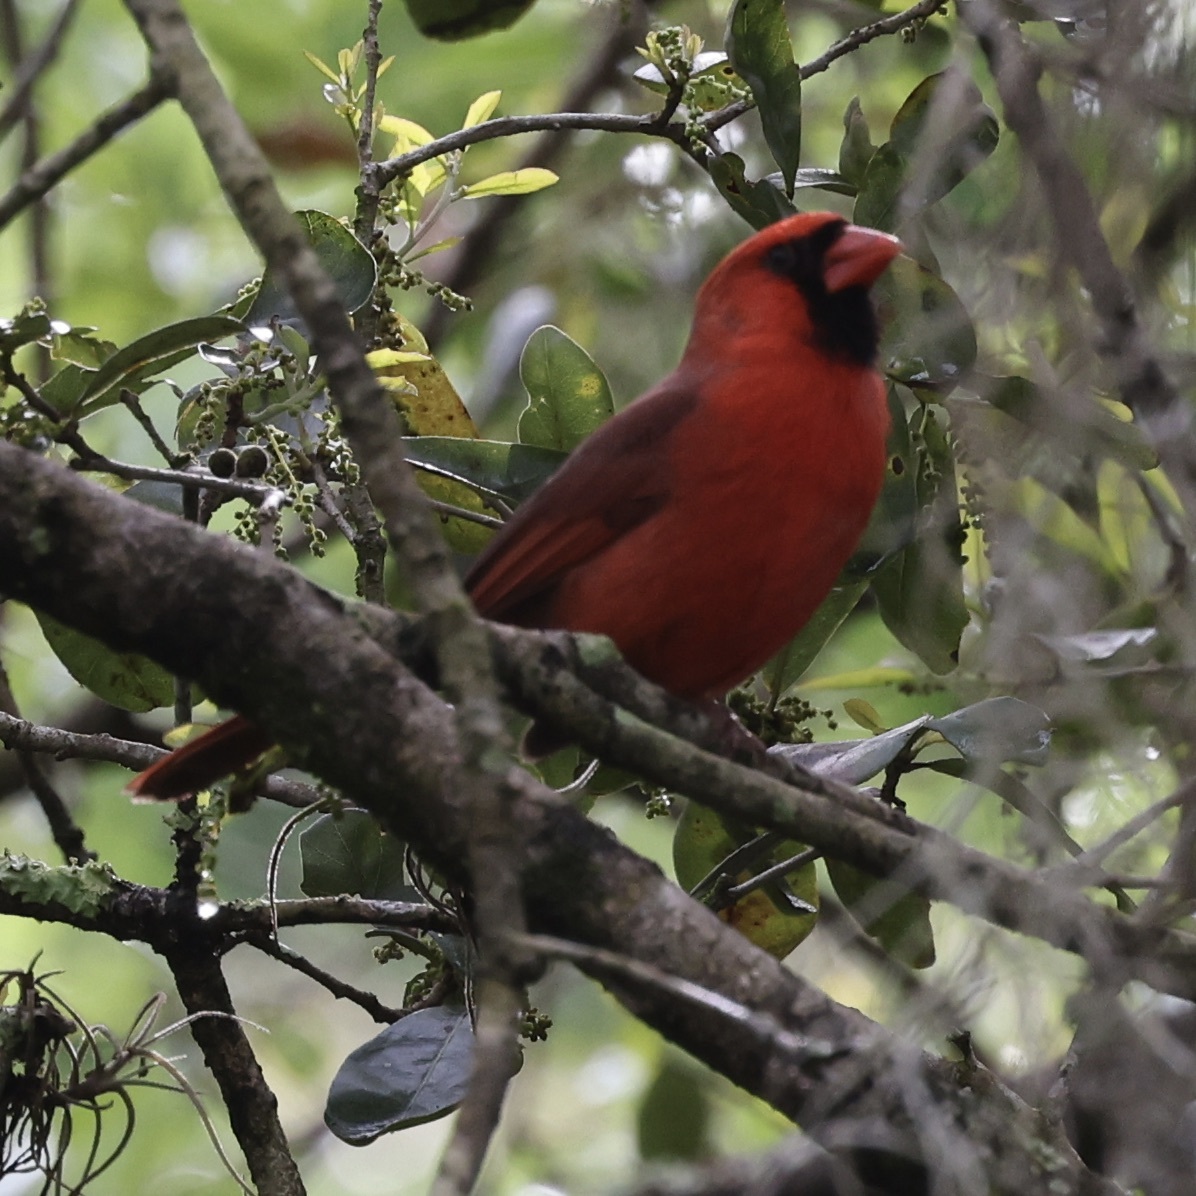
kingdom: Animalia
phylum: Chordata
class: Aves
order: Passeriformes
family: Cardinalidae
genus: Cardinalis
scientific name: Cardinalis cardinalis
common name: Northern cardinal
